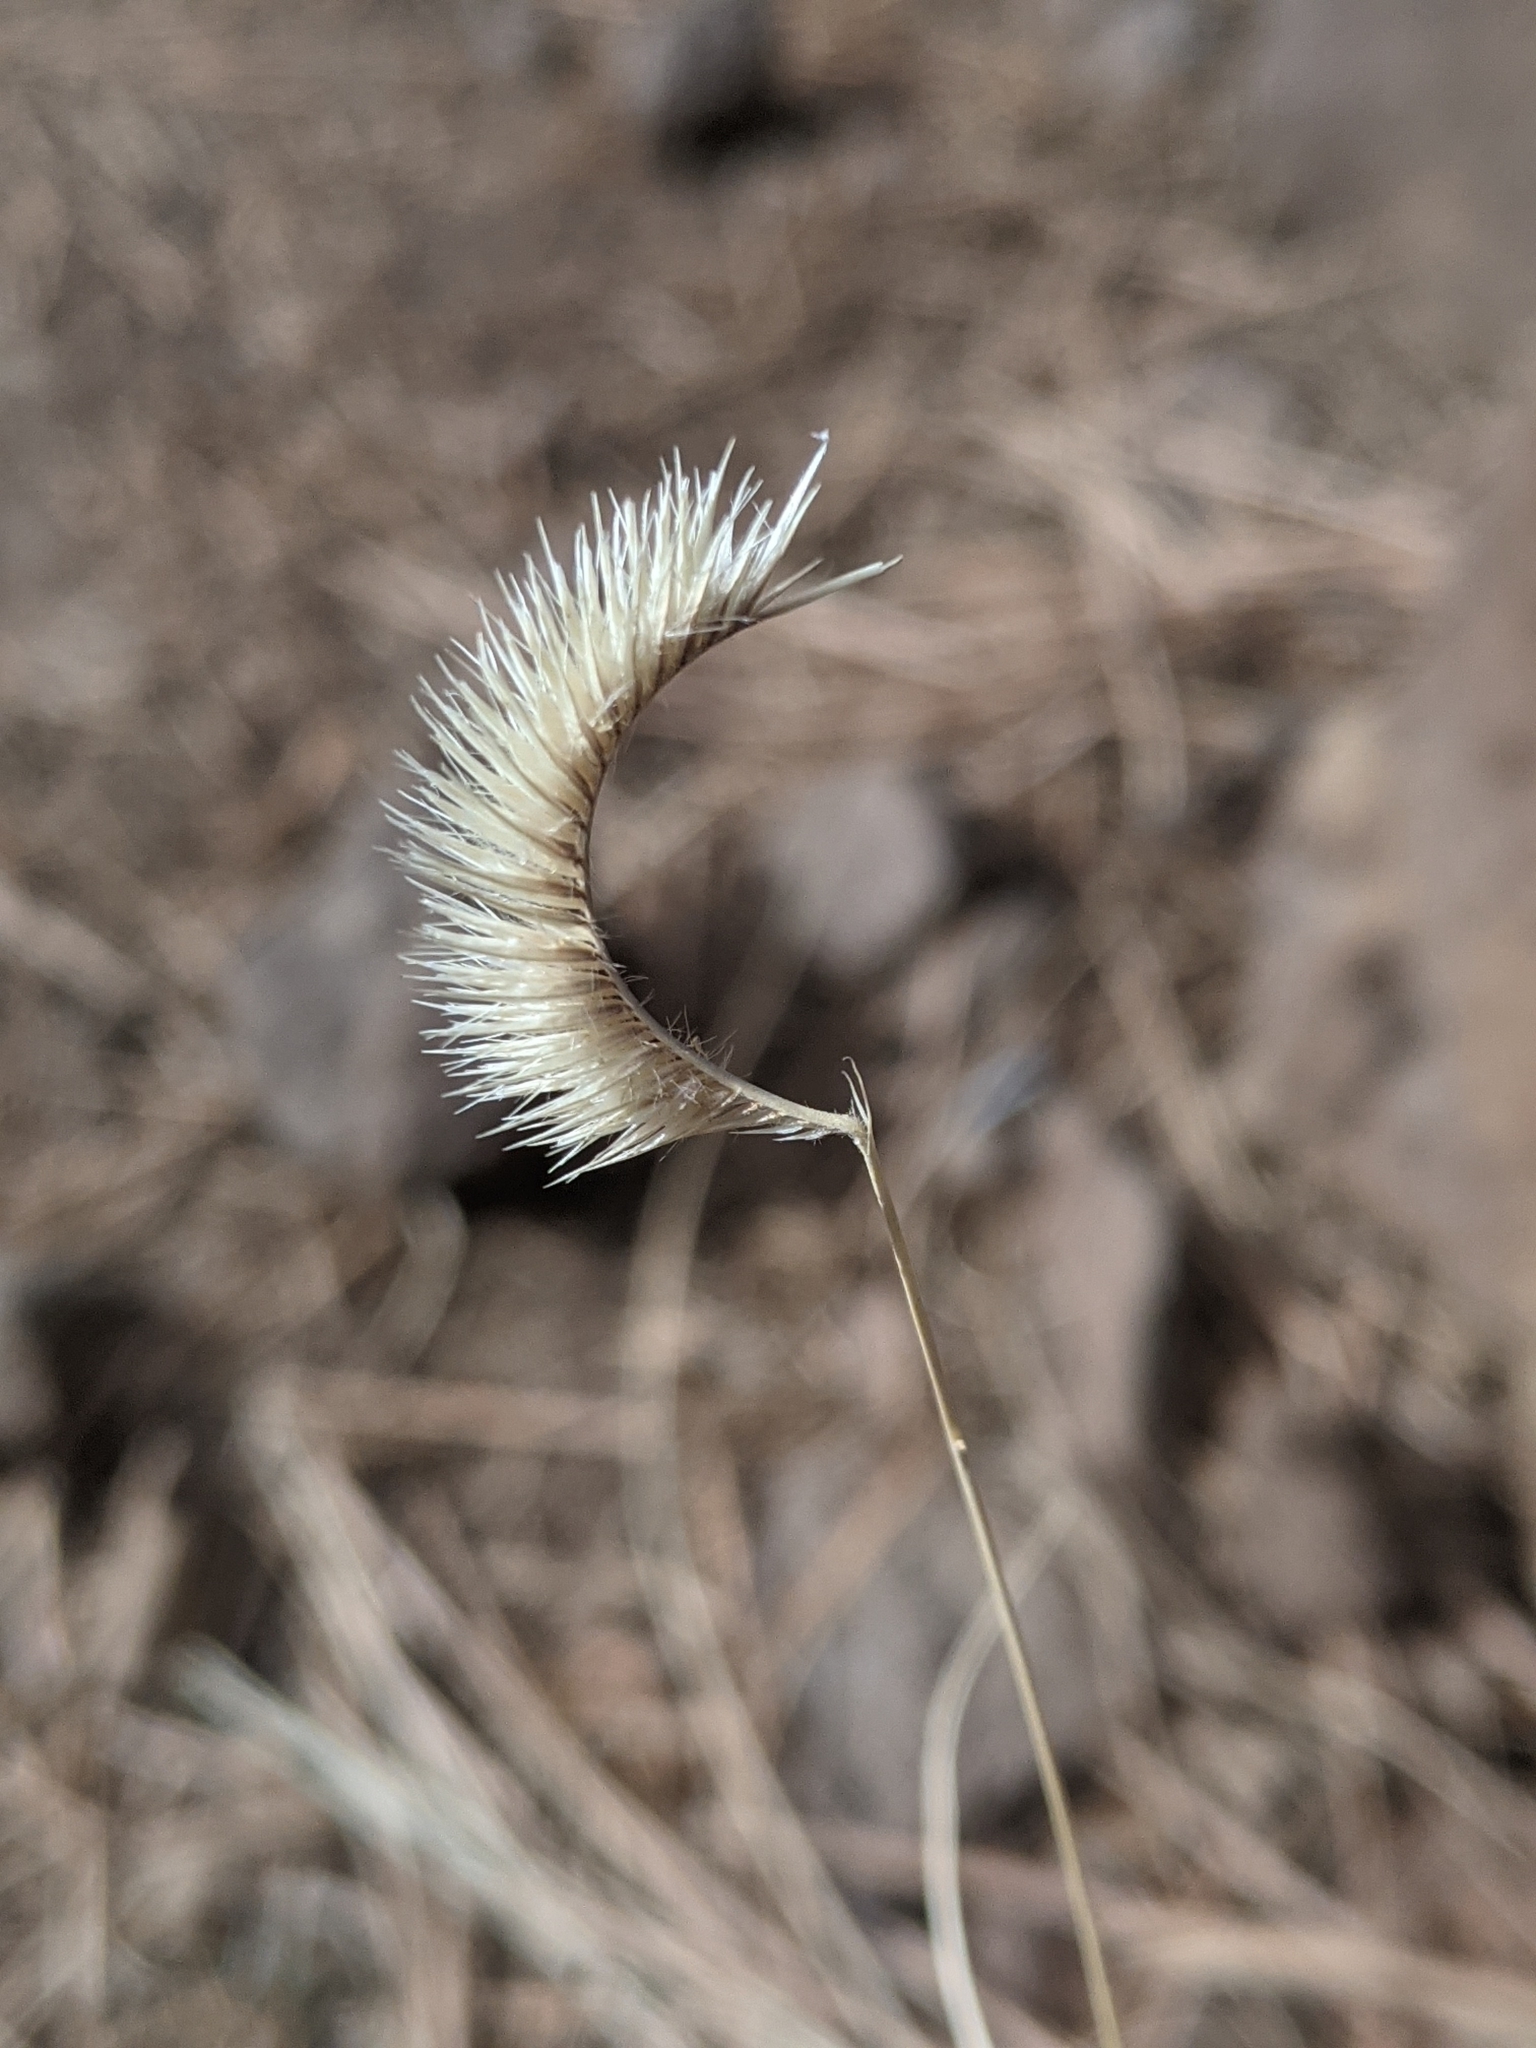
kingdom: Plantae
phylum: Tracheophyta
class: Liliopsida
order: Poales
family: Poaceae
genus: Bouteloua
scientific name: Bouteloua gracilis
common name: Blue grama
